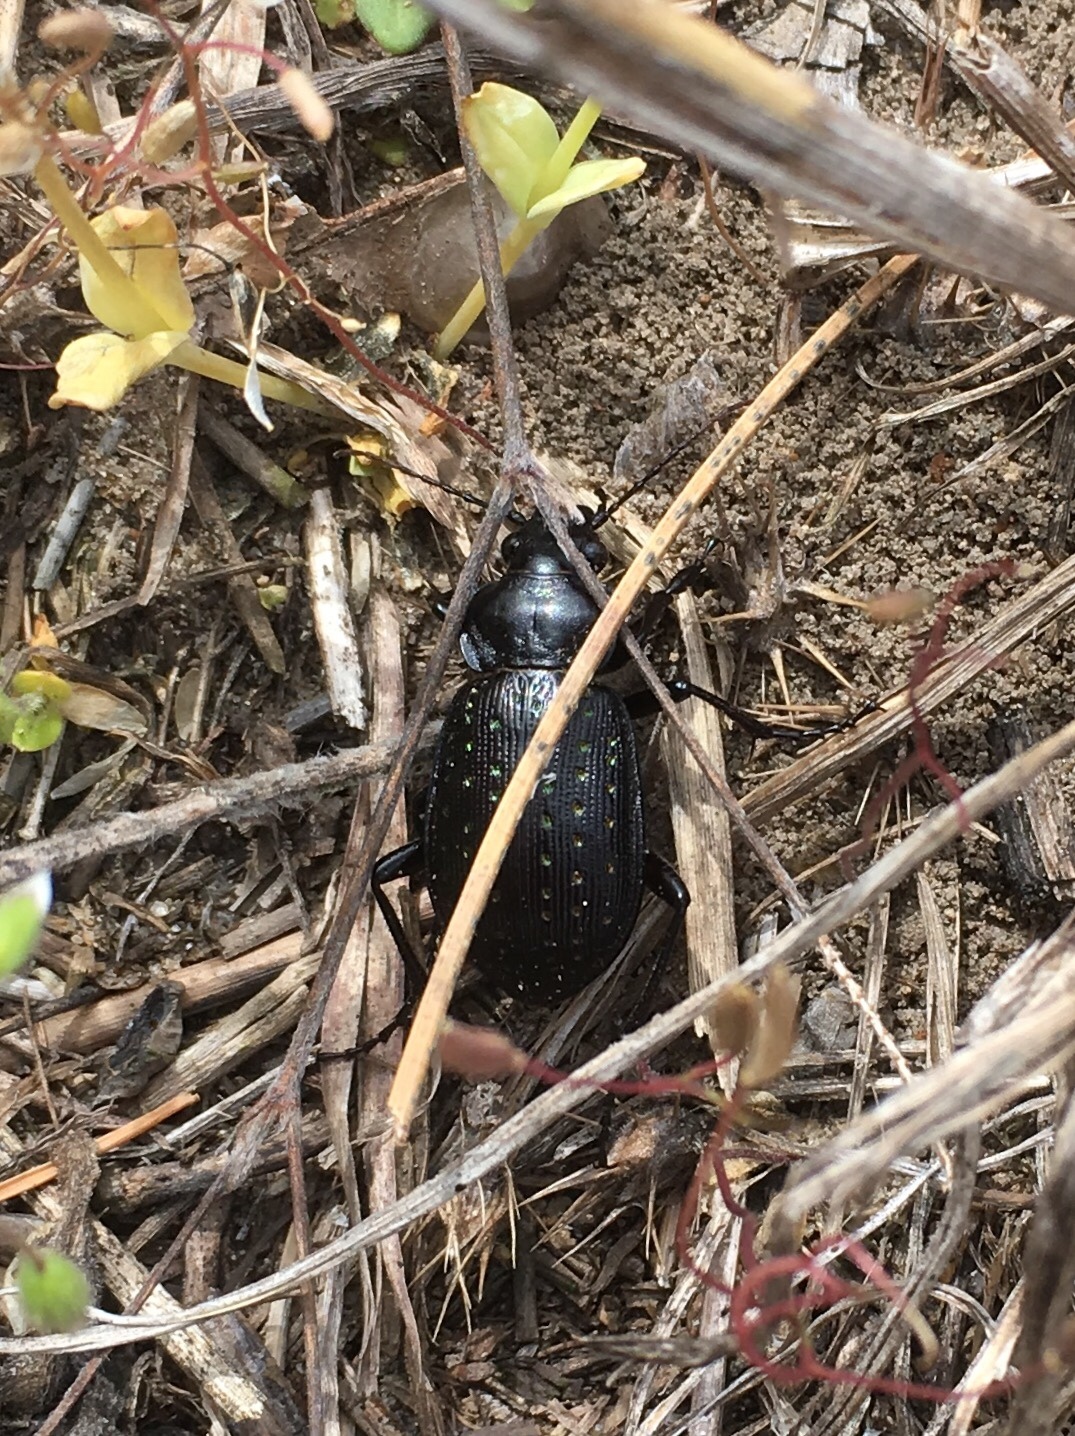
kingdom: Animalia
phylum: Arthropoda
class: Insecta
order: Coleoptera
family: Carabidae
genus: Calosoma
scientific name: Calosoma calidum
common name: Fiery hunter
